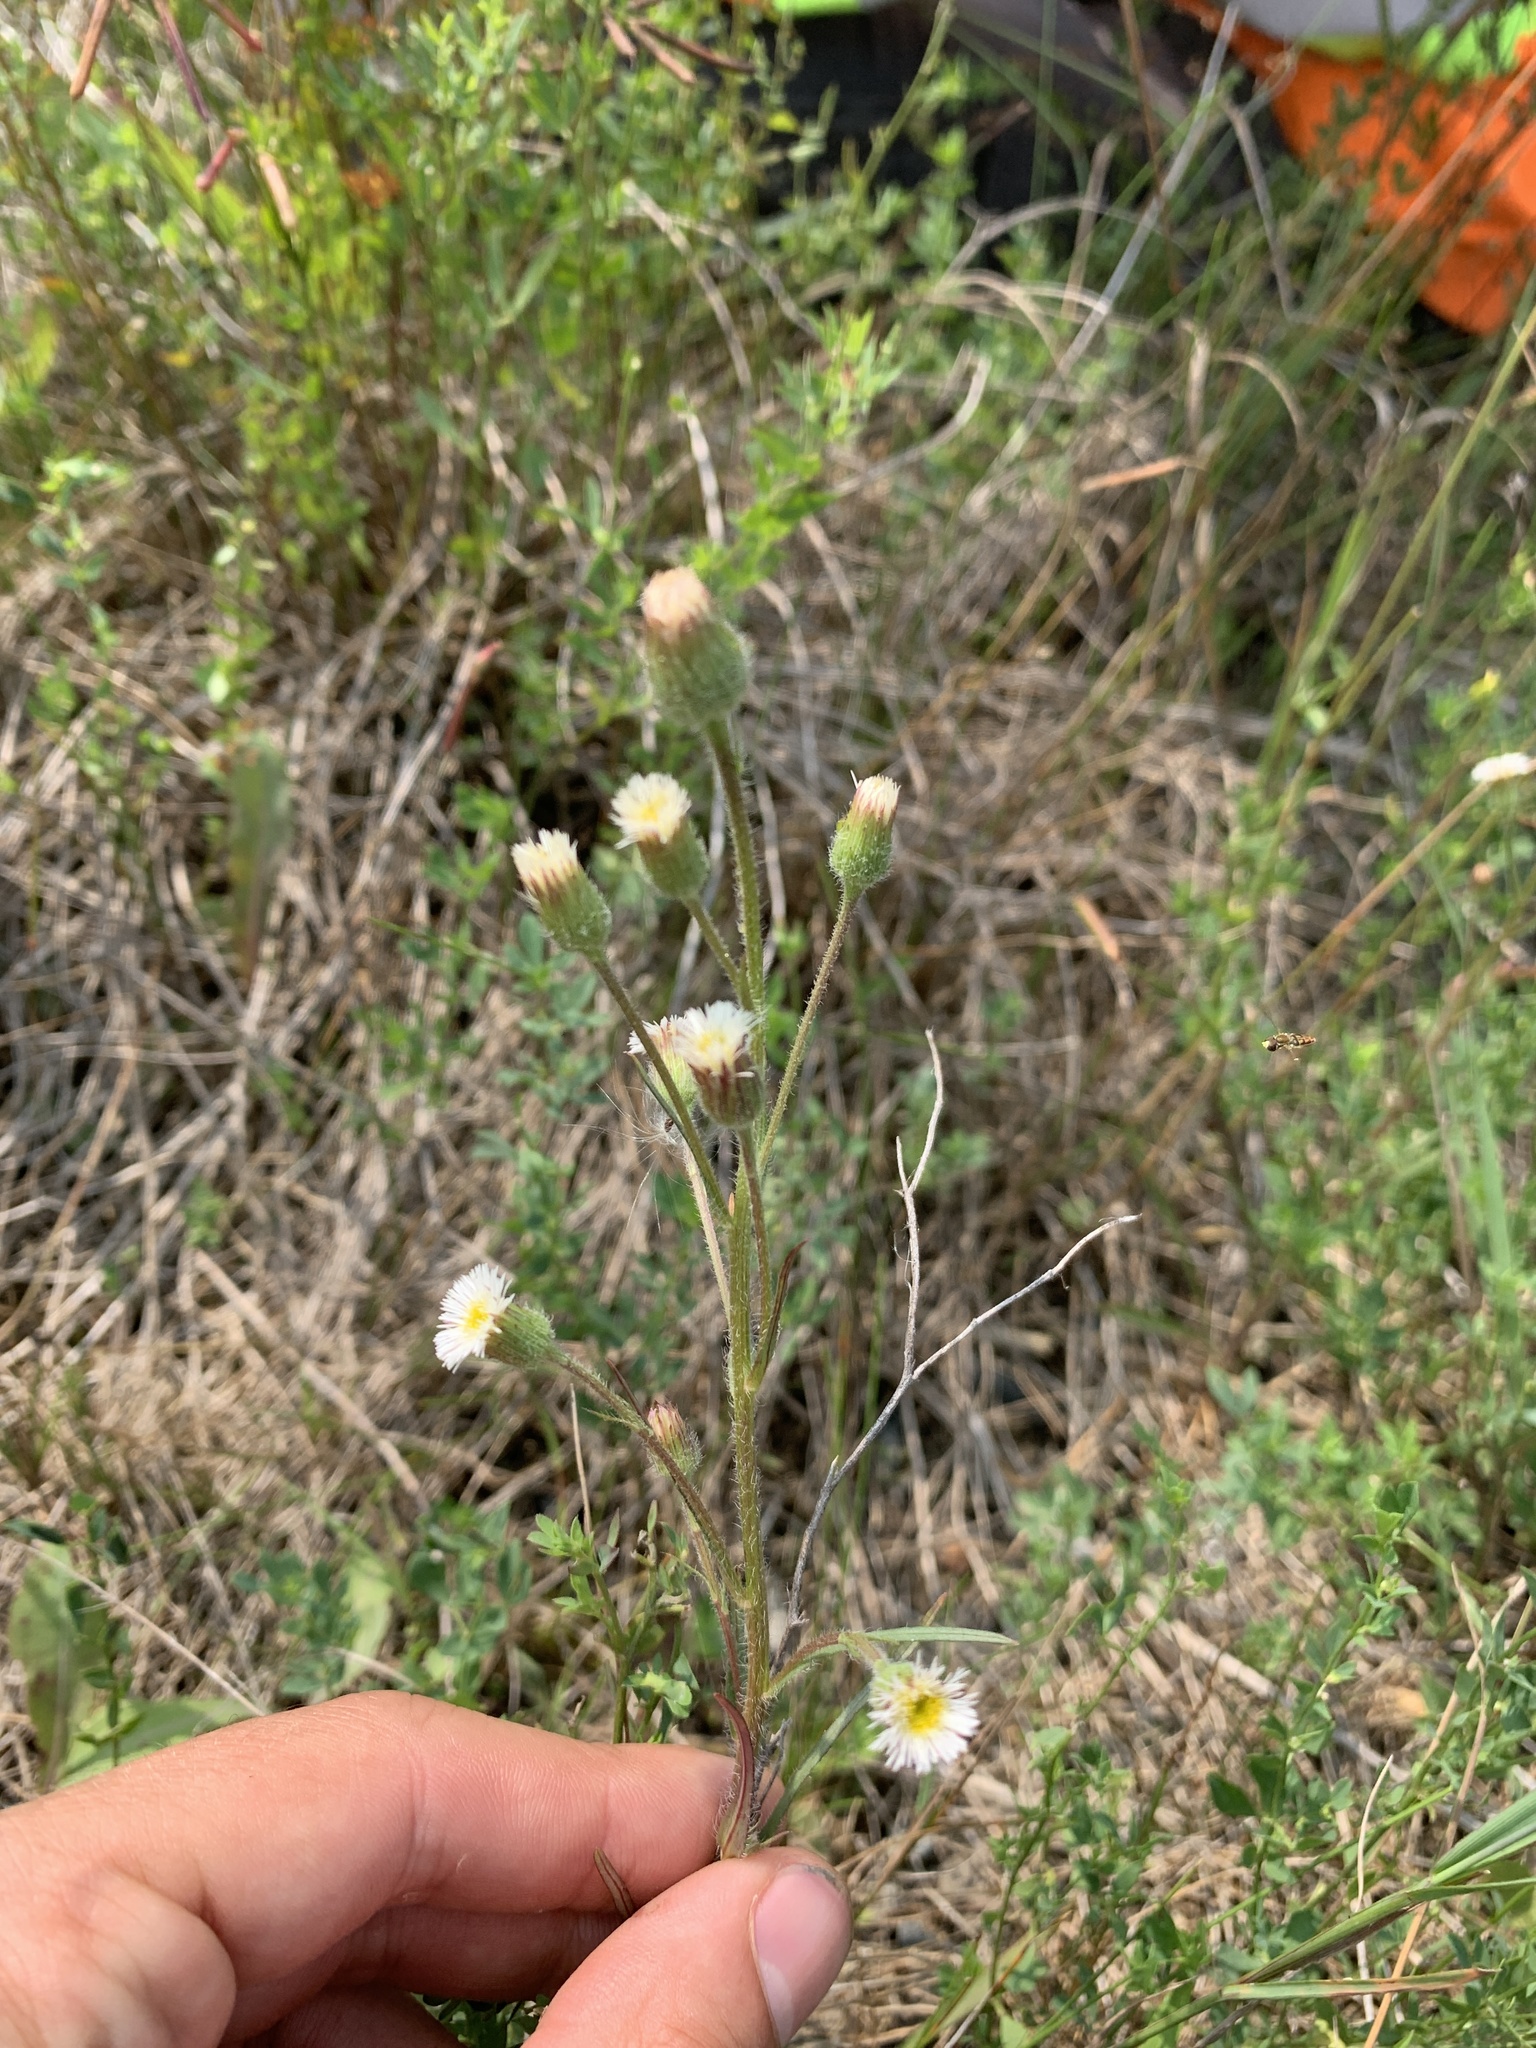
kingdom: Plantae
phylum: Tracheophyta
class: Magnoliopsida
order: Asterales
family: Asteraceae
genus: Erigeron
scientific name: Erigeron acris
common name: Blue fleabane
